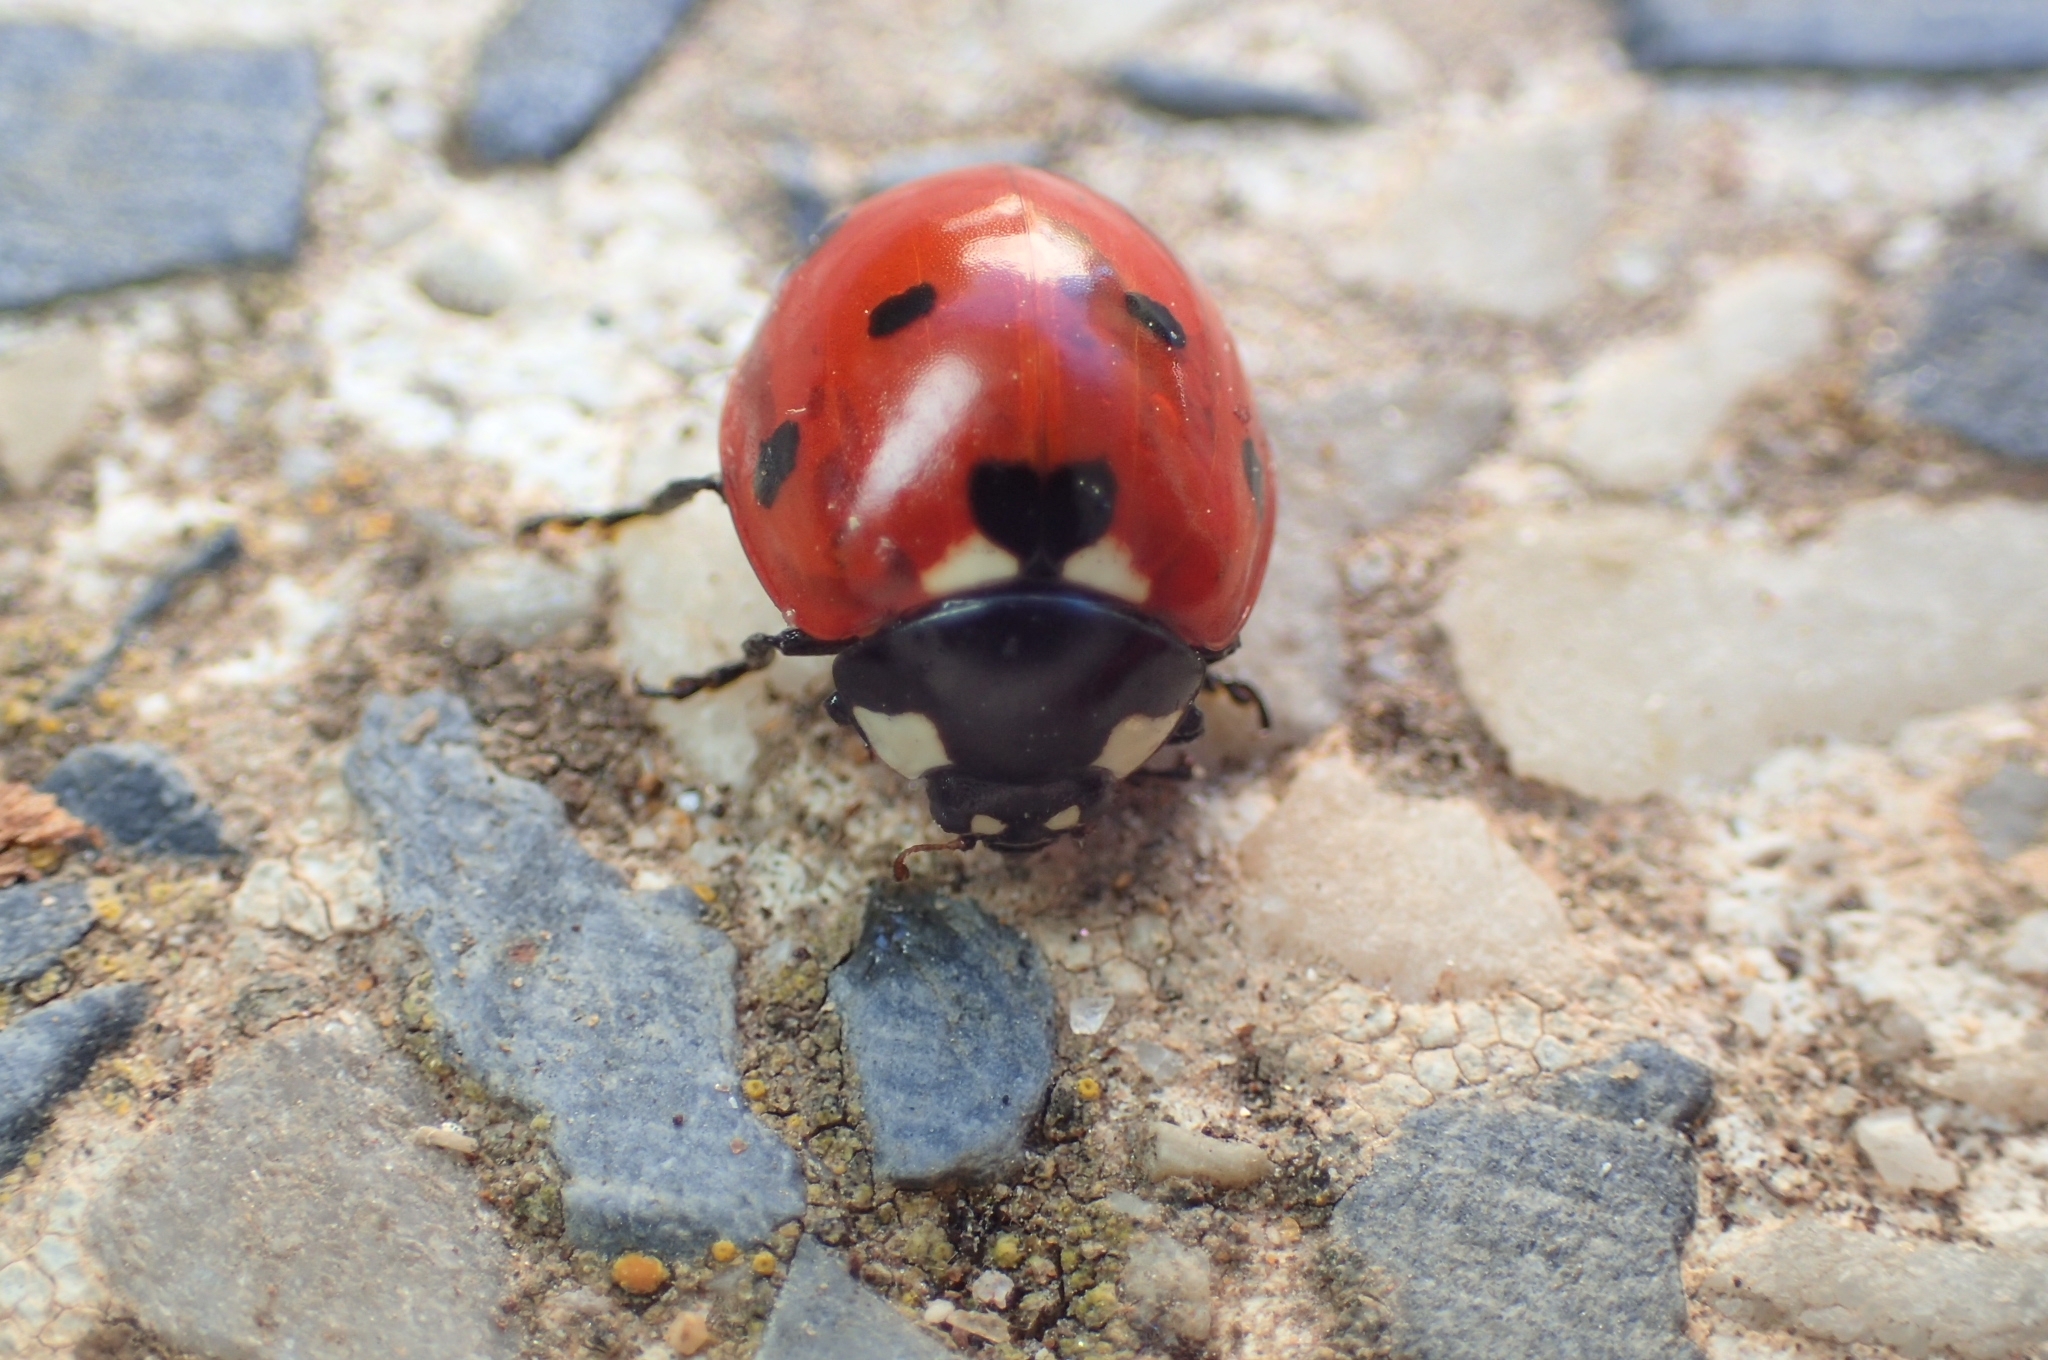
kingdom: Animalia
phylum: Arthropoda
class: Insecta
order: Coleoptera
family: Coccinellidae
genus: Coccinella
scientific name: Coccinella septempunctata
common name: Sevenspotted lady beetle
